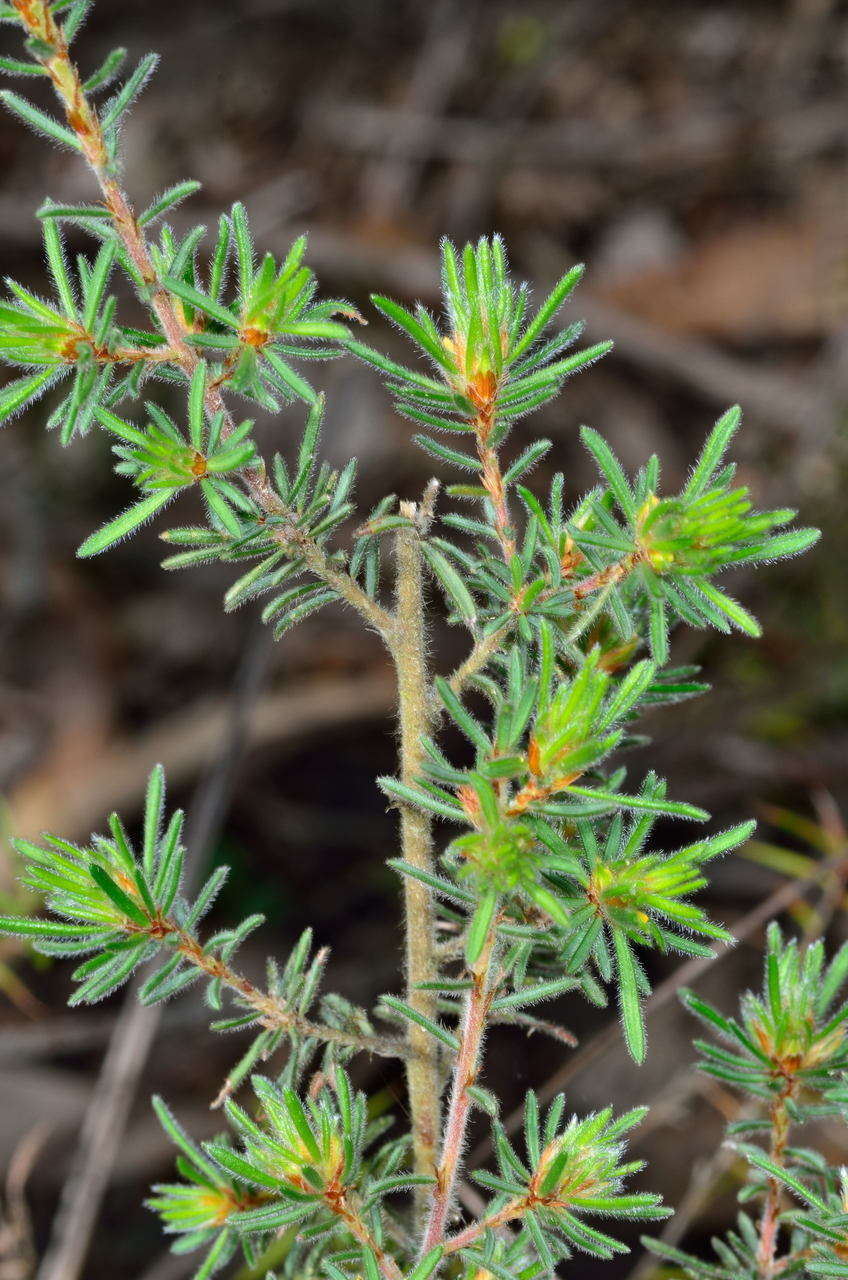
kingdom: Plantae
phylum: Tracheophyta
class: Magnoliopsida
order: Fabales
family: Fabaceae
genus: Pultenaea
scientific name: Pultenaea daltonii
